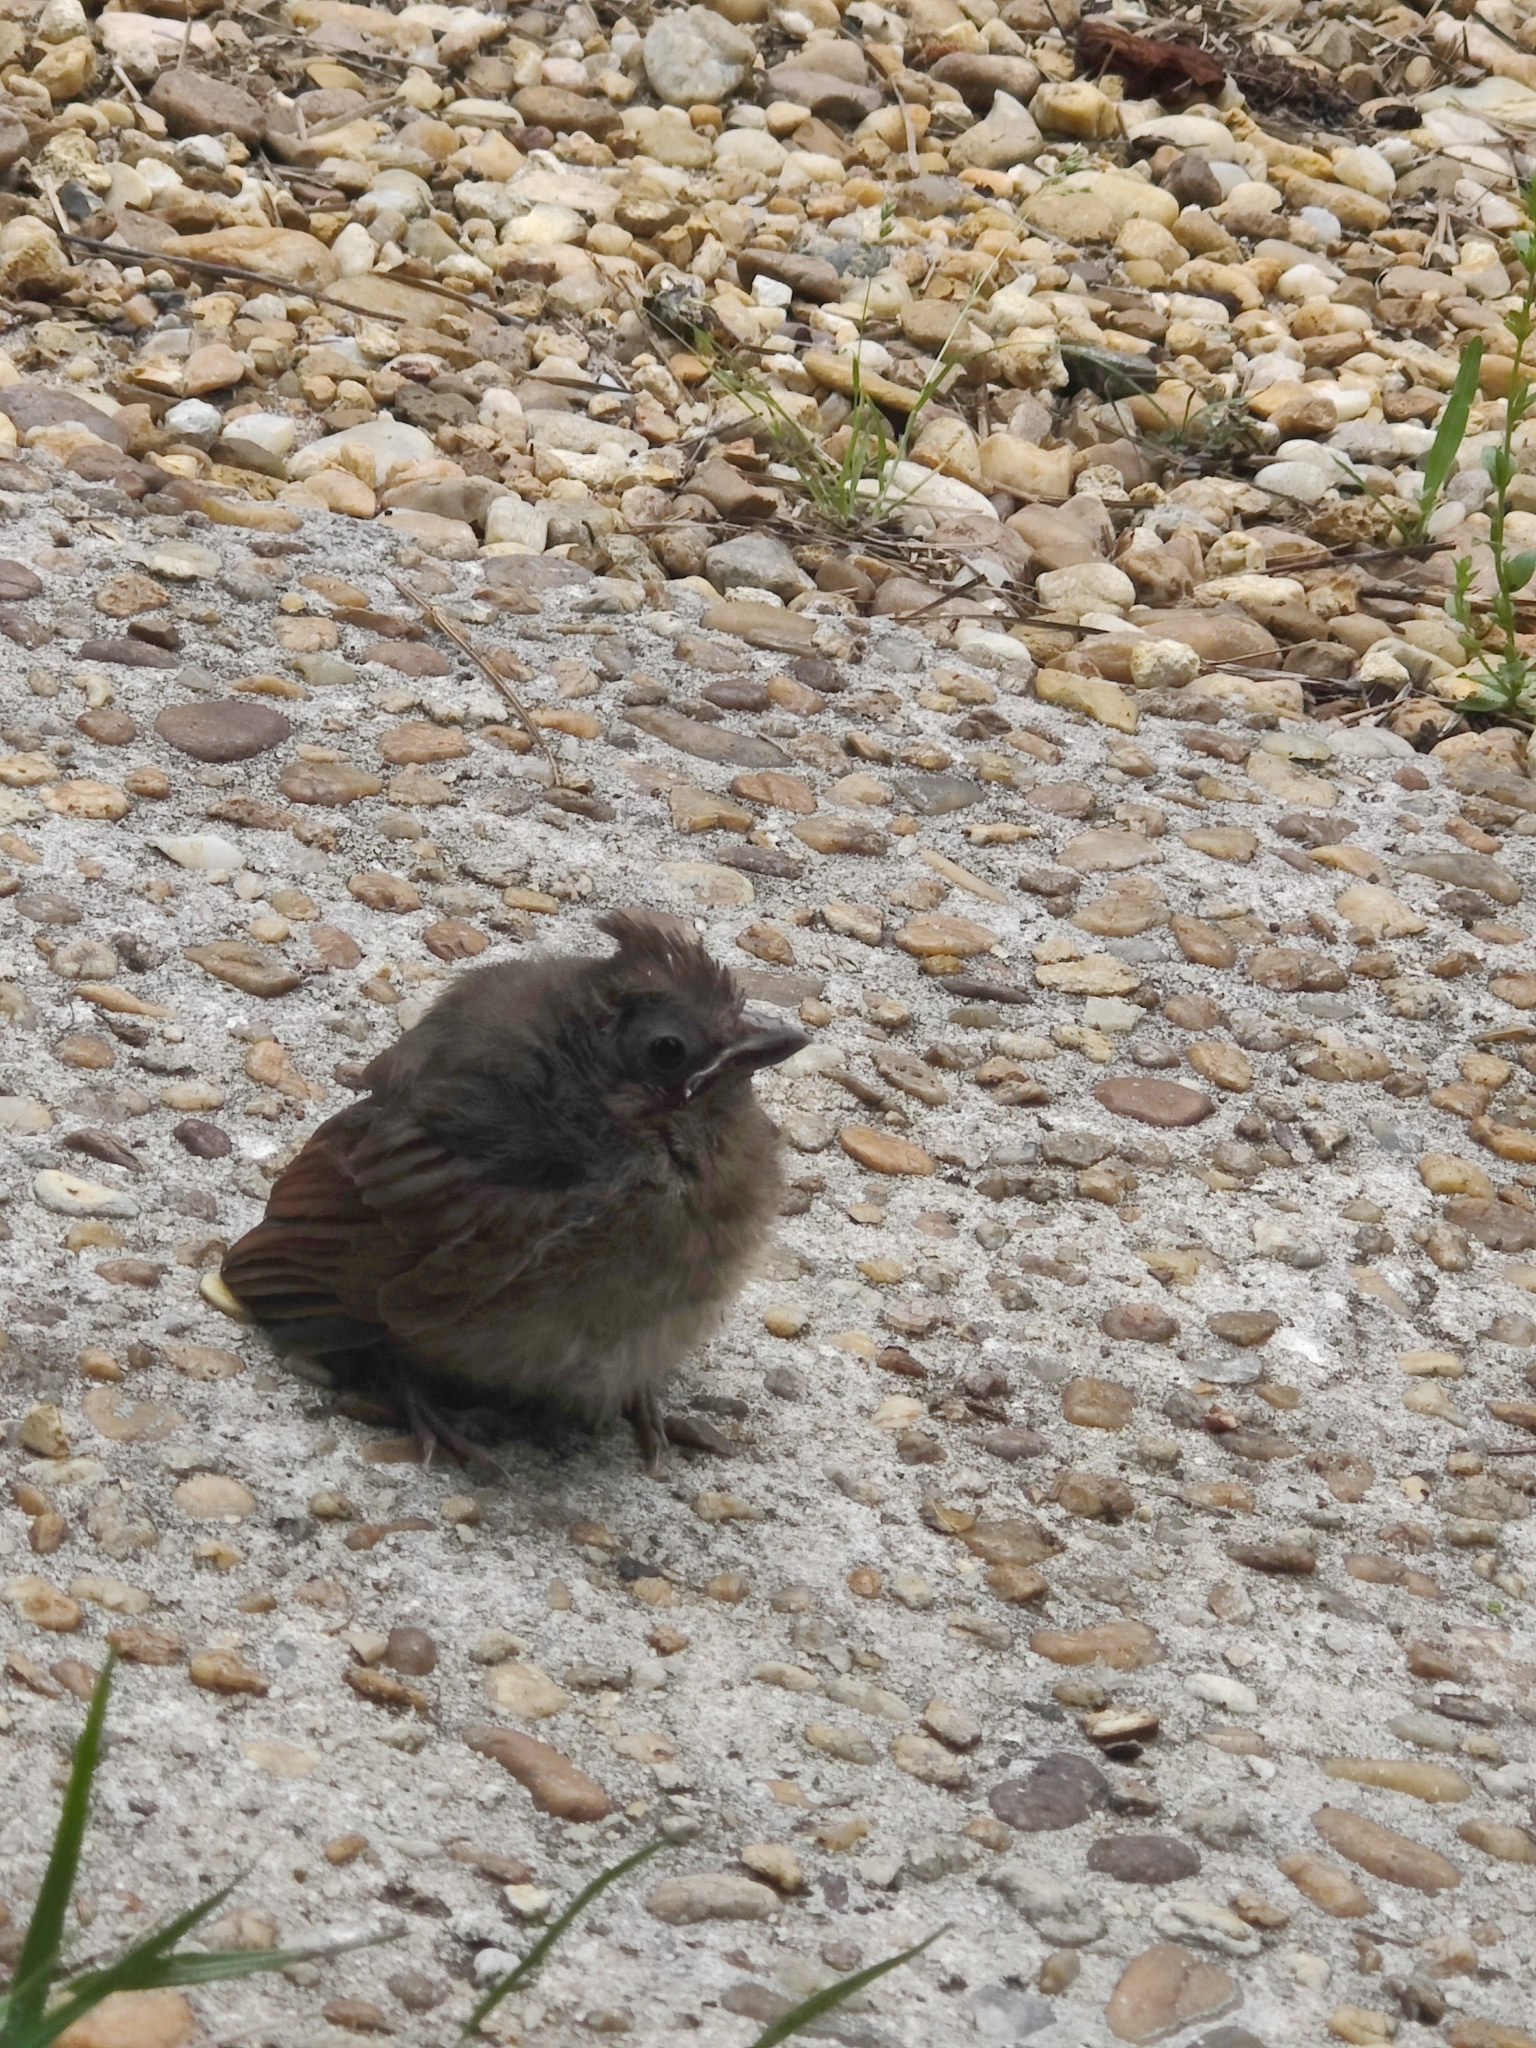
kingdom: Animalia
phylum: Chordata
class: Aves
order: Passeriformes
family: Cardinalidae
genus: Cardinalis
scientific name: Cardinalis cardinalis
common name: Northern cardinal
